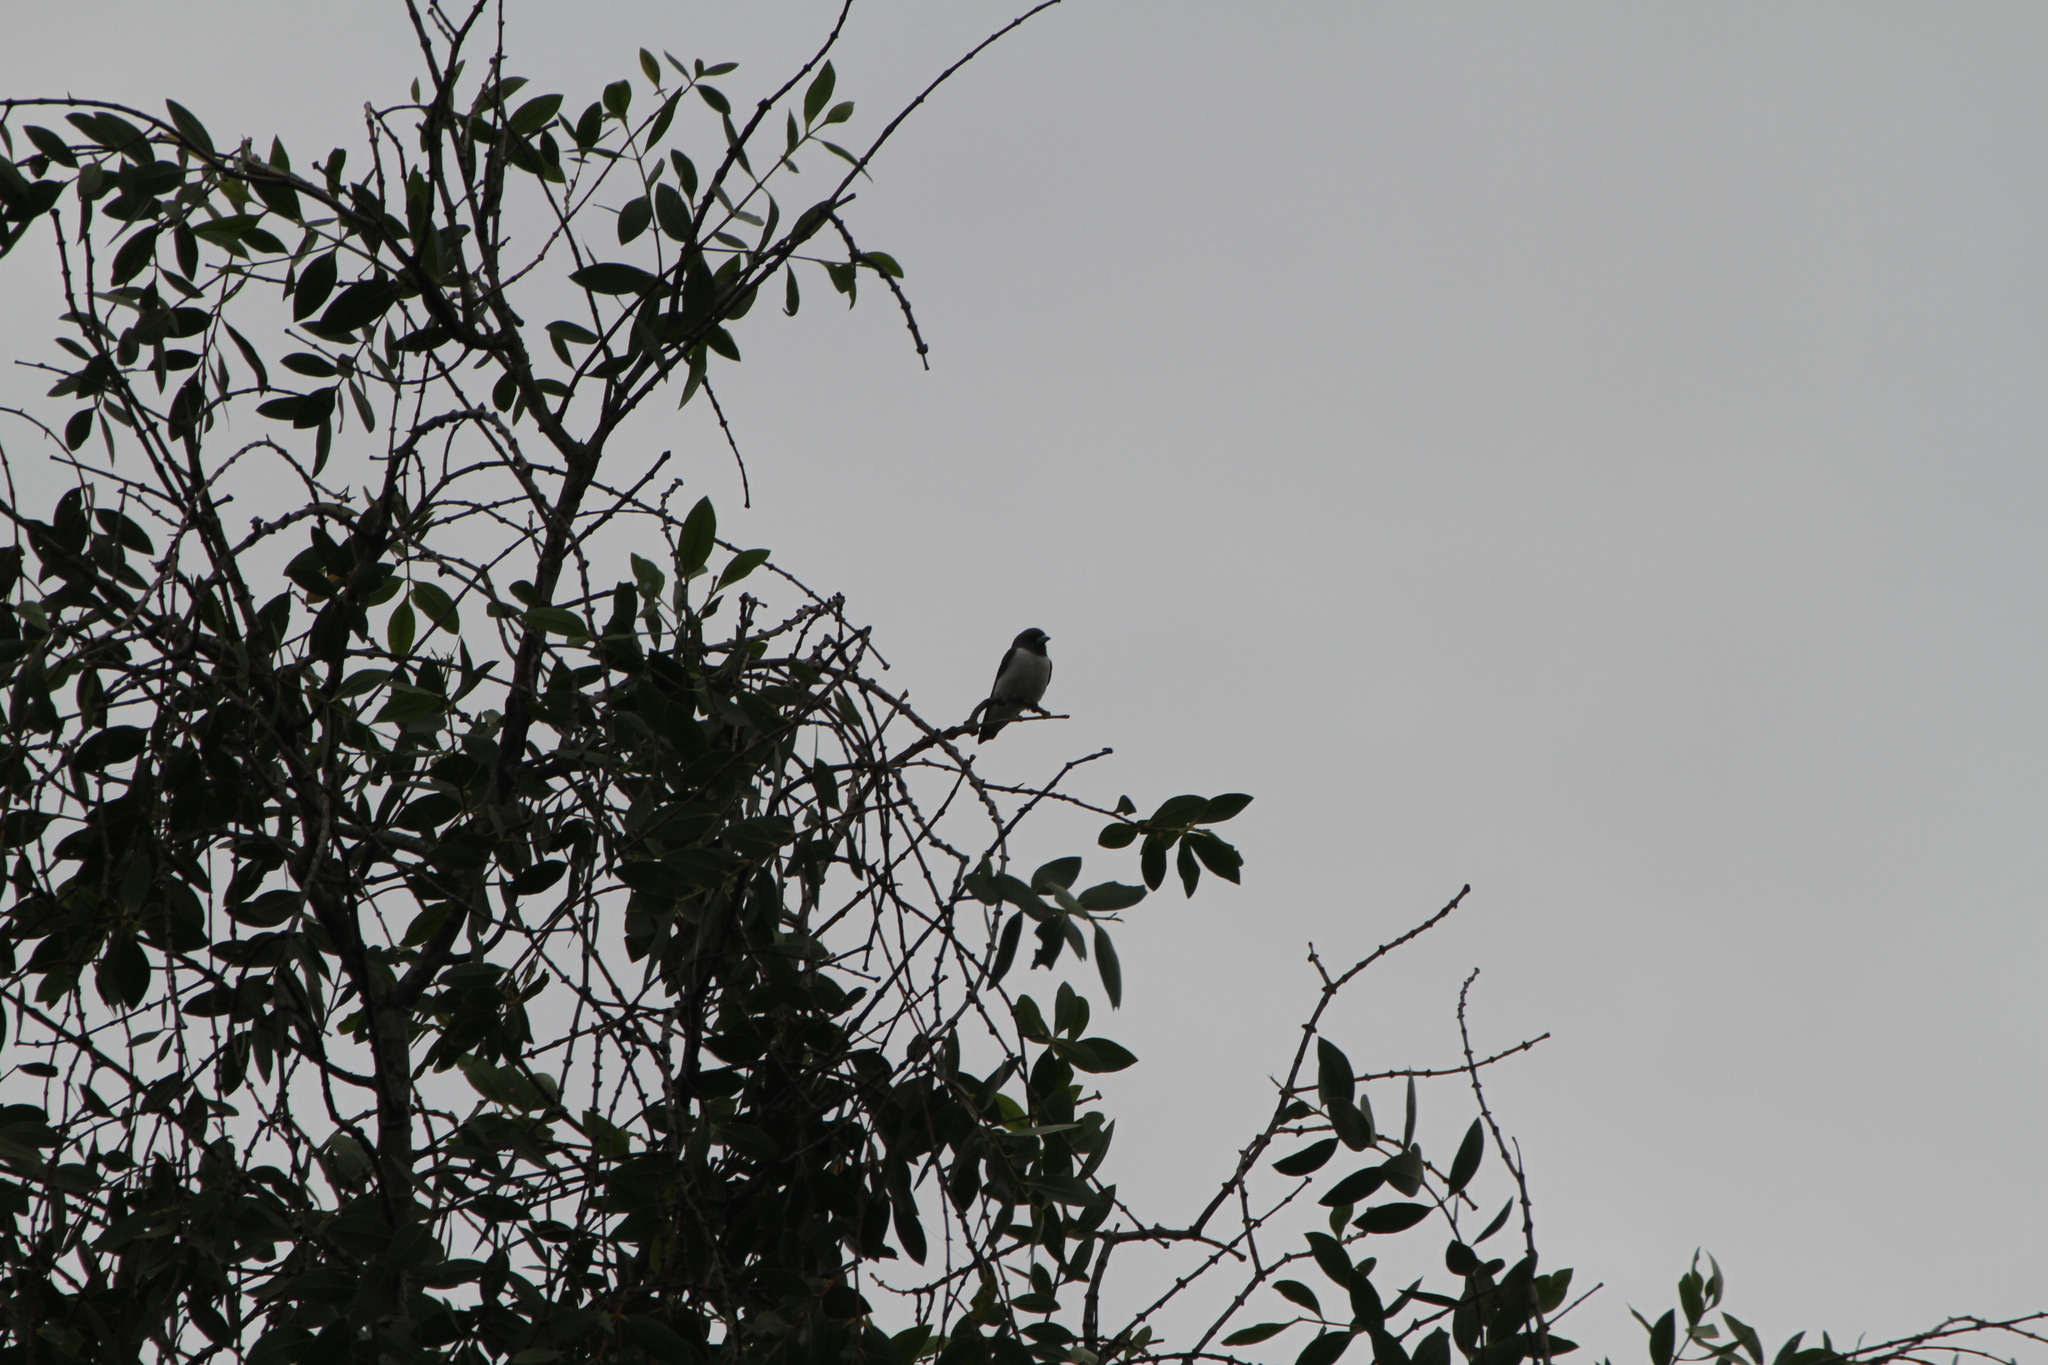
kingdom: Animalia
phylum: Chordata
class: Aves
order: Passeriformes
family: Artamidae
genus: Artamus
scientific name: Artamus leucoryn
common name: White-breasted woodswallow
